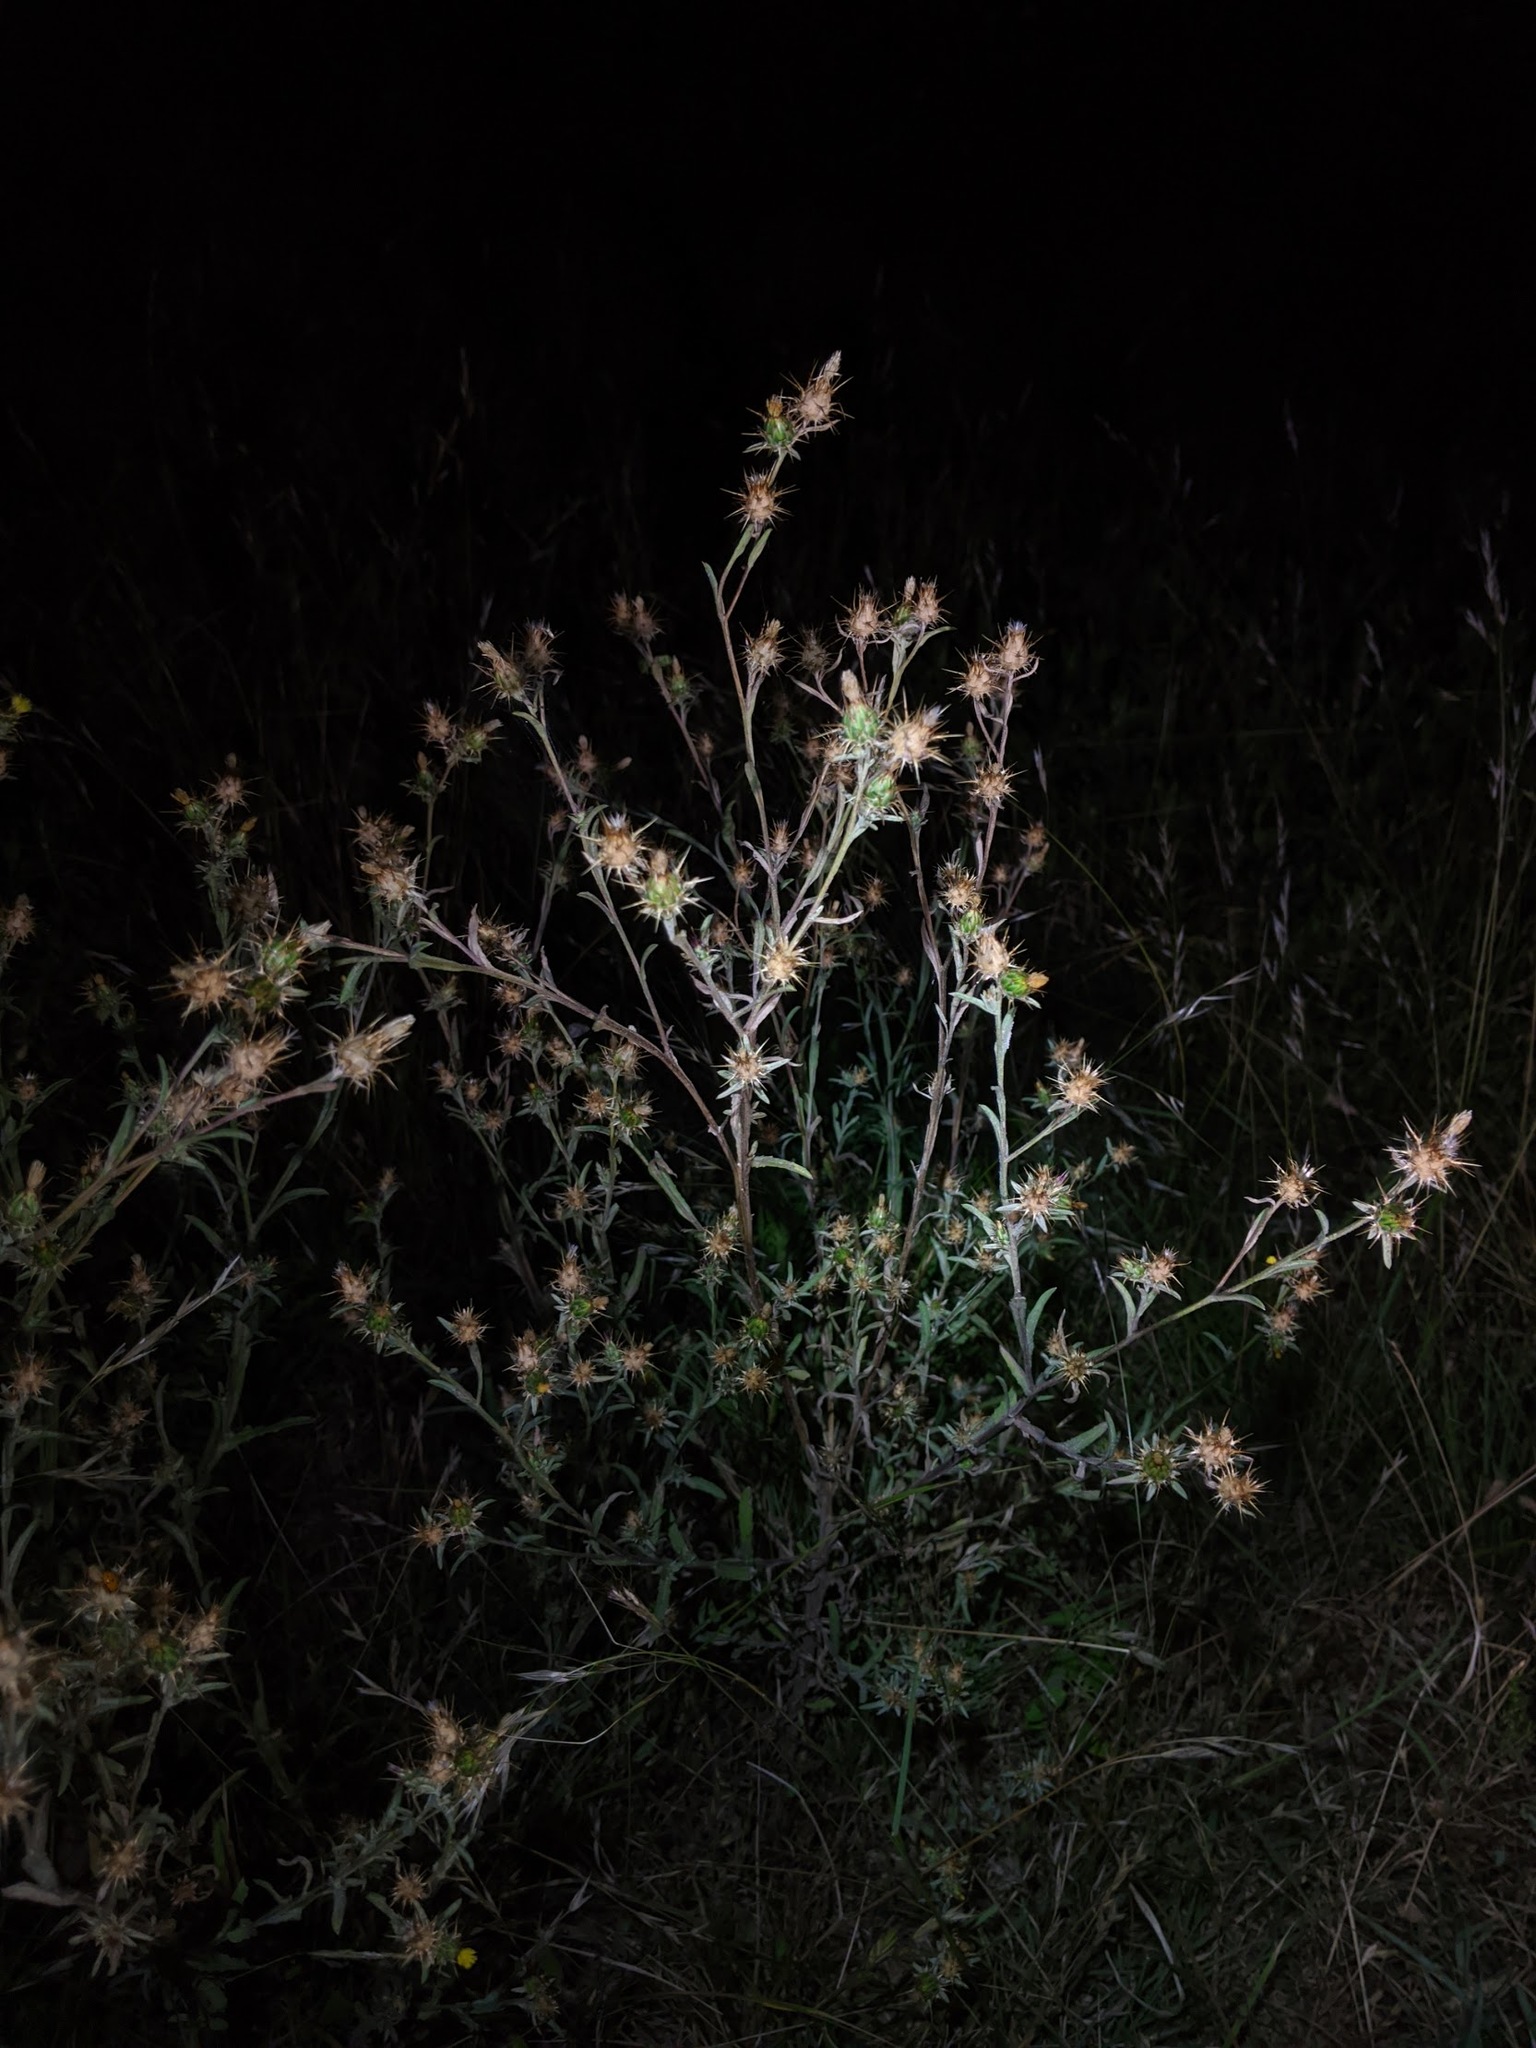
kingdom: Plantae
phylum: Tracheophyta
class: Magnoliopsida
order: Asterales
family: Asteraceae
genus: Centaurea
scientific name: Centaurea melitensis
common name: Maltese star-thistle
